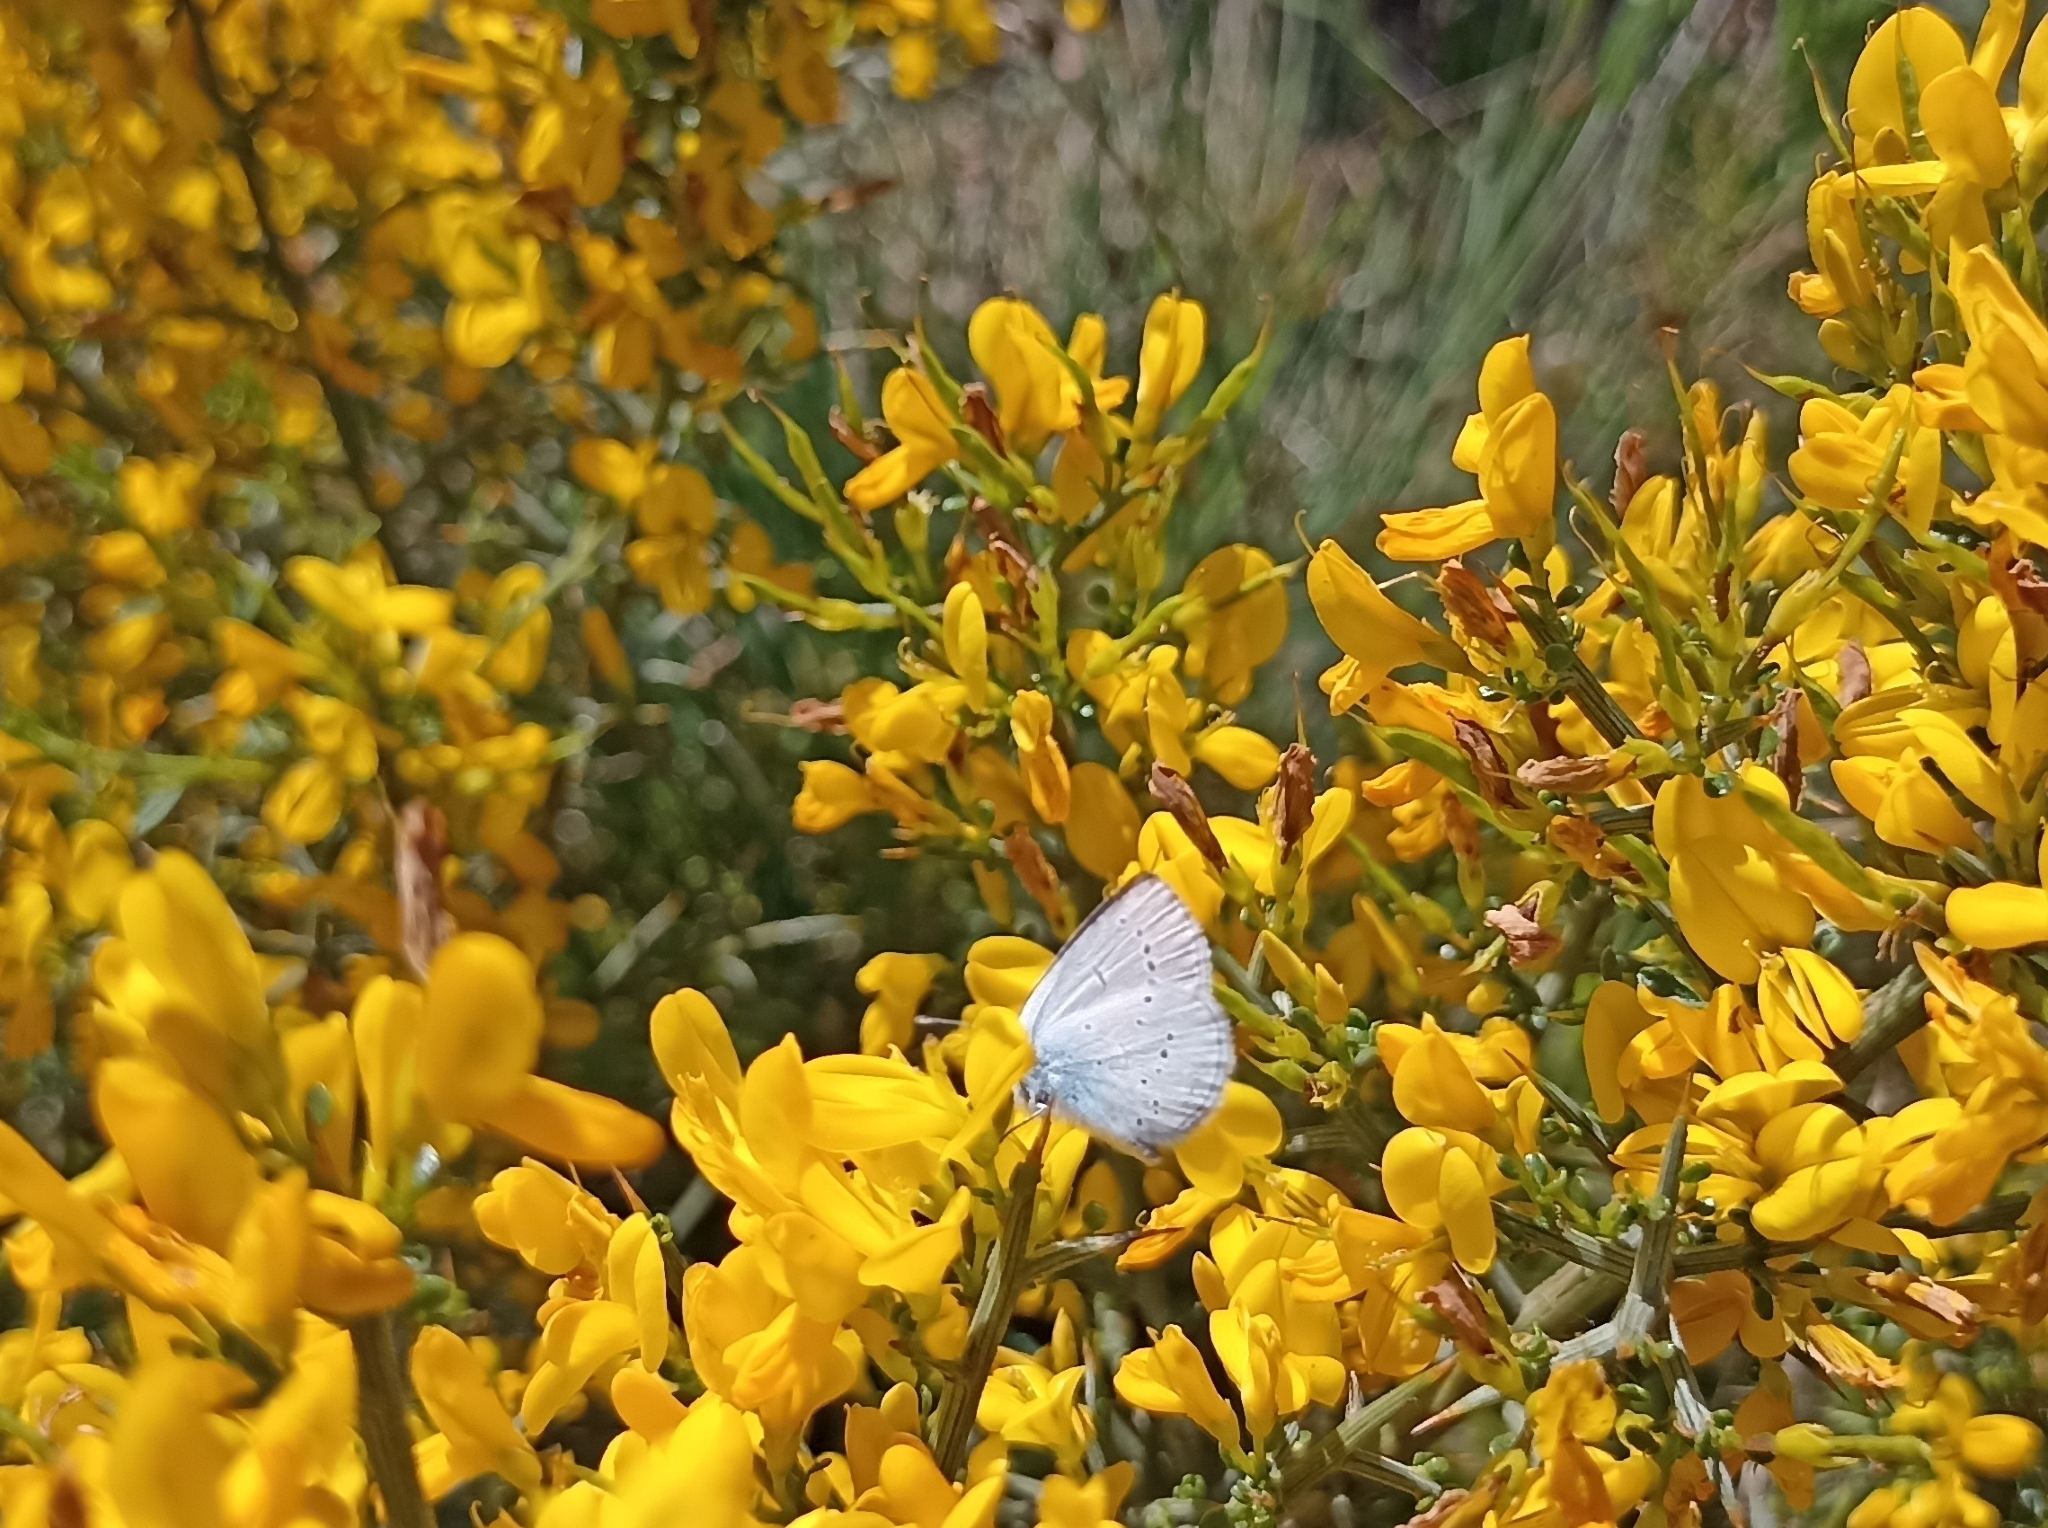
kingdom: Animalia
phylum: Arthropoda
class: Insecta
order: Lepidoptera
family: Lycaenidae
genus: Cupido
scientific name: Cupido minimus
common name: Small blue
